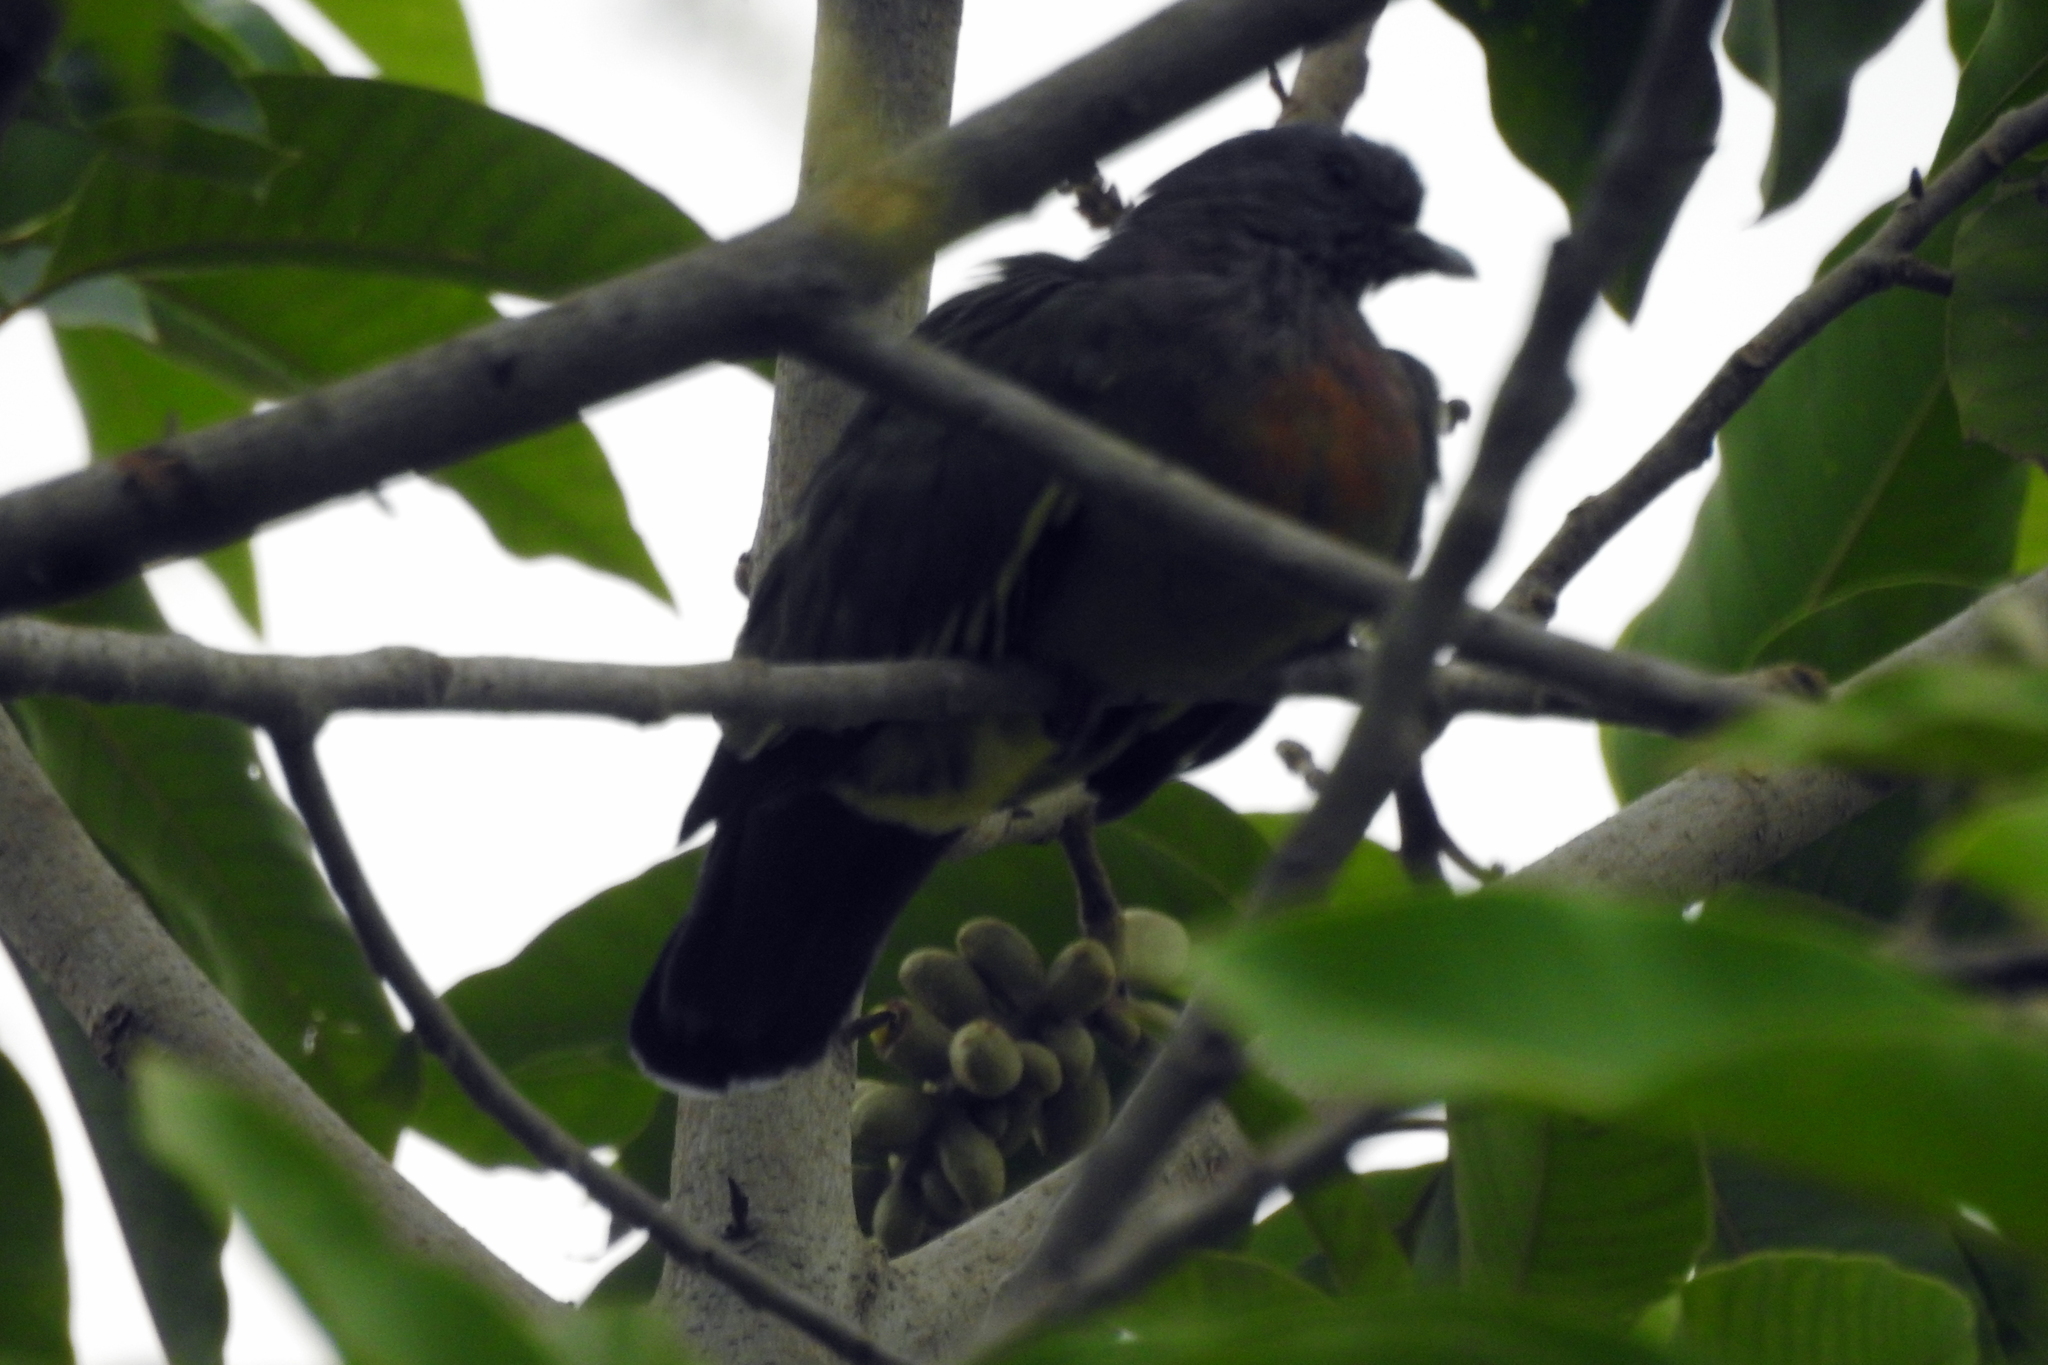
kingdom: Animalia
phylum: Chordata
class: Aves
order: Columbiformes
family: Columbidae
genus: Treron
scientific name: Treron vernans
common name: Pink-necked green pigeon
